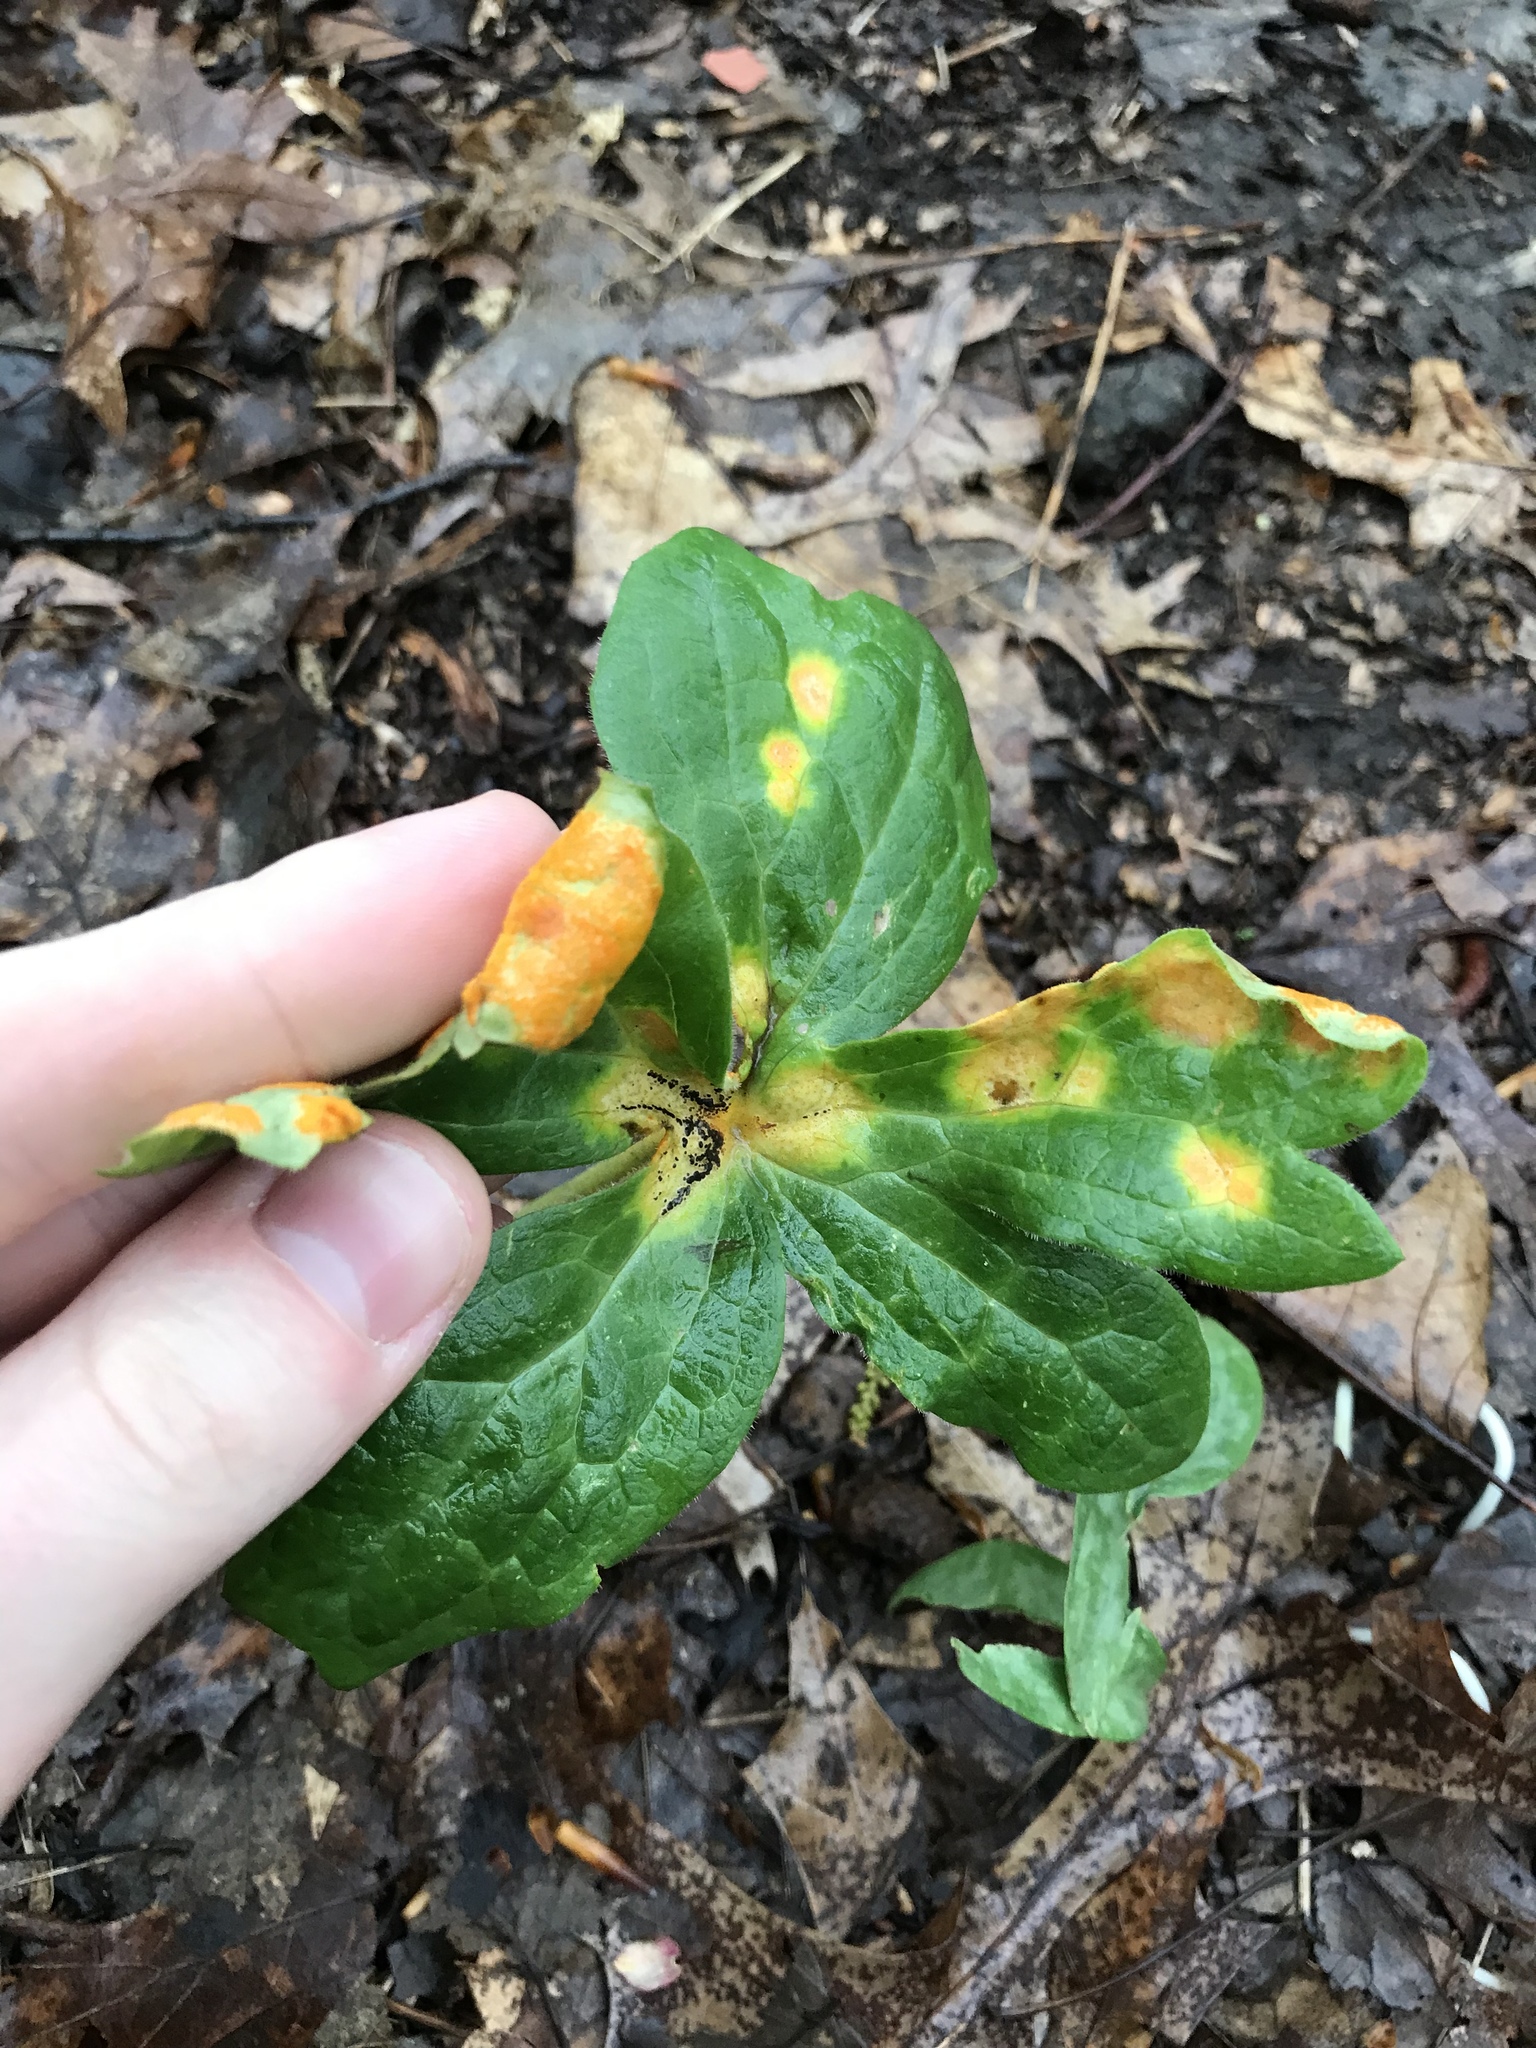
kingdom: Fungi
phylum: Basidiomycota
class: Pucciniomycetes
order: Pucciniales
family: Pucciniaceae
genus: Puccinia
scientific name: Puccinia podophylli
